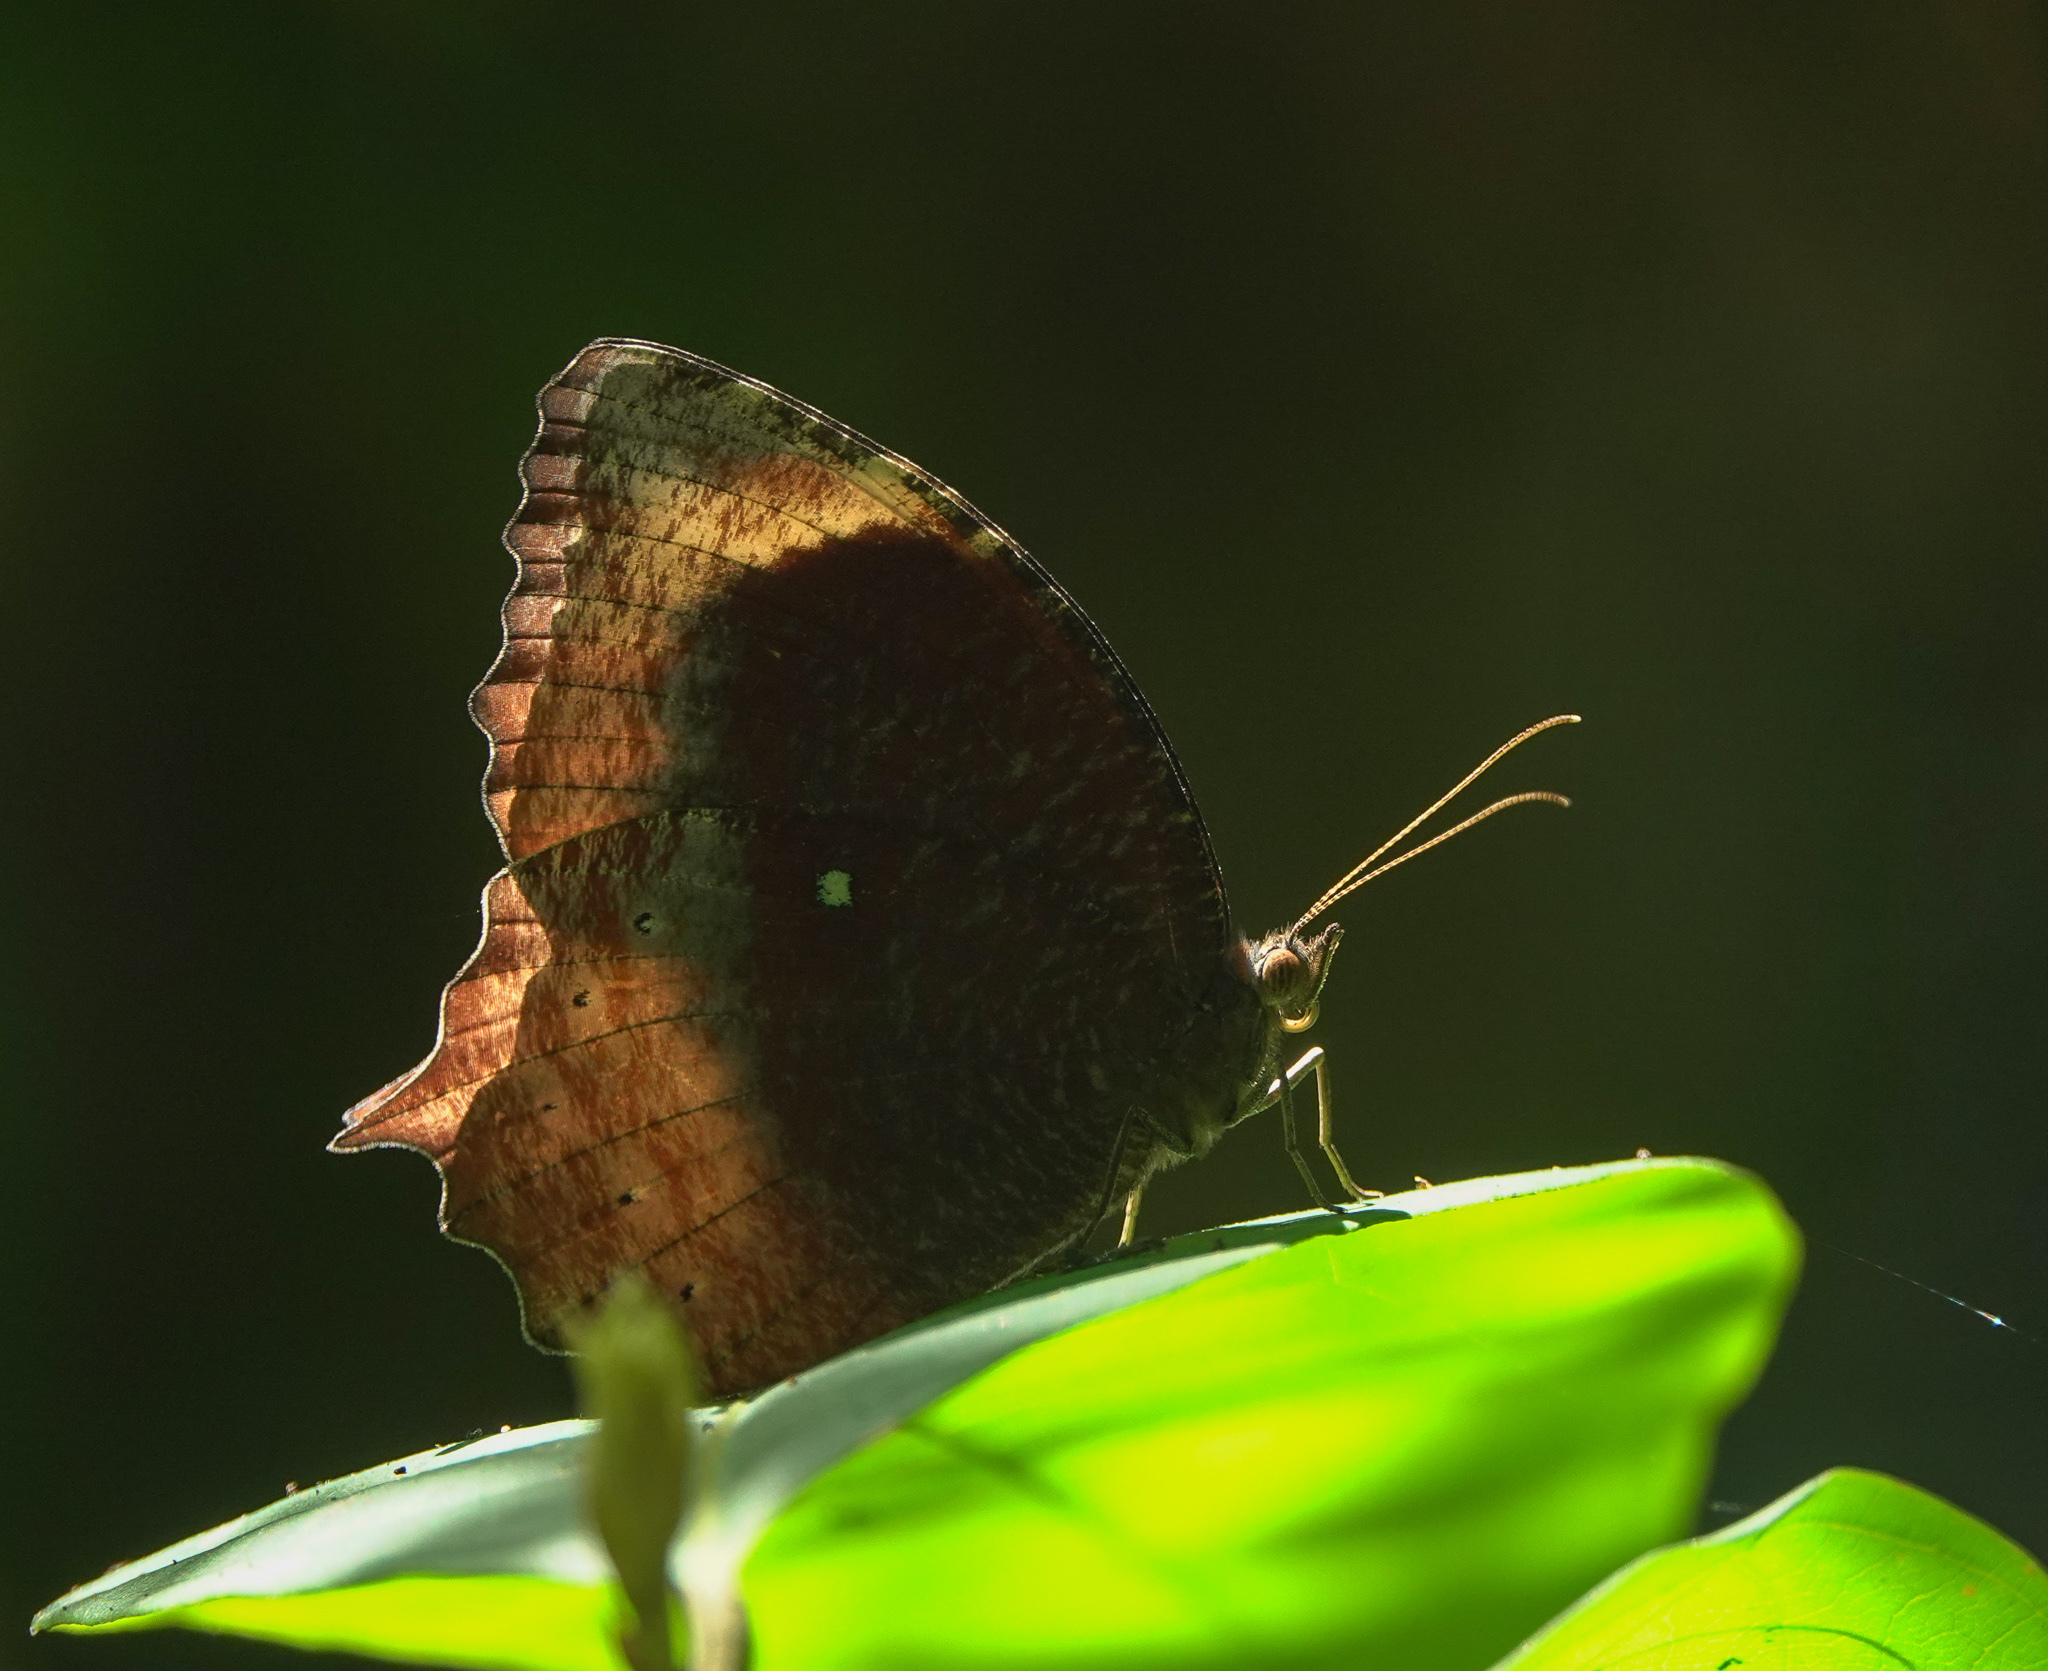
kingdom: Animalia
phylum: Arthropoda
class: Insecta
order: Lepidoptera
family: Nymphalidae
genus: Elymnias
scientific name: Elymnias congruens
